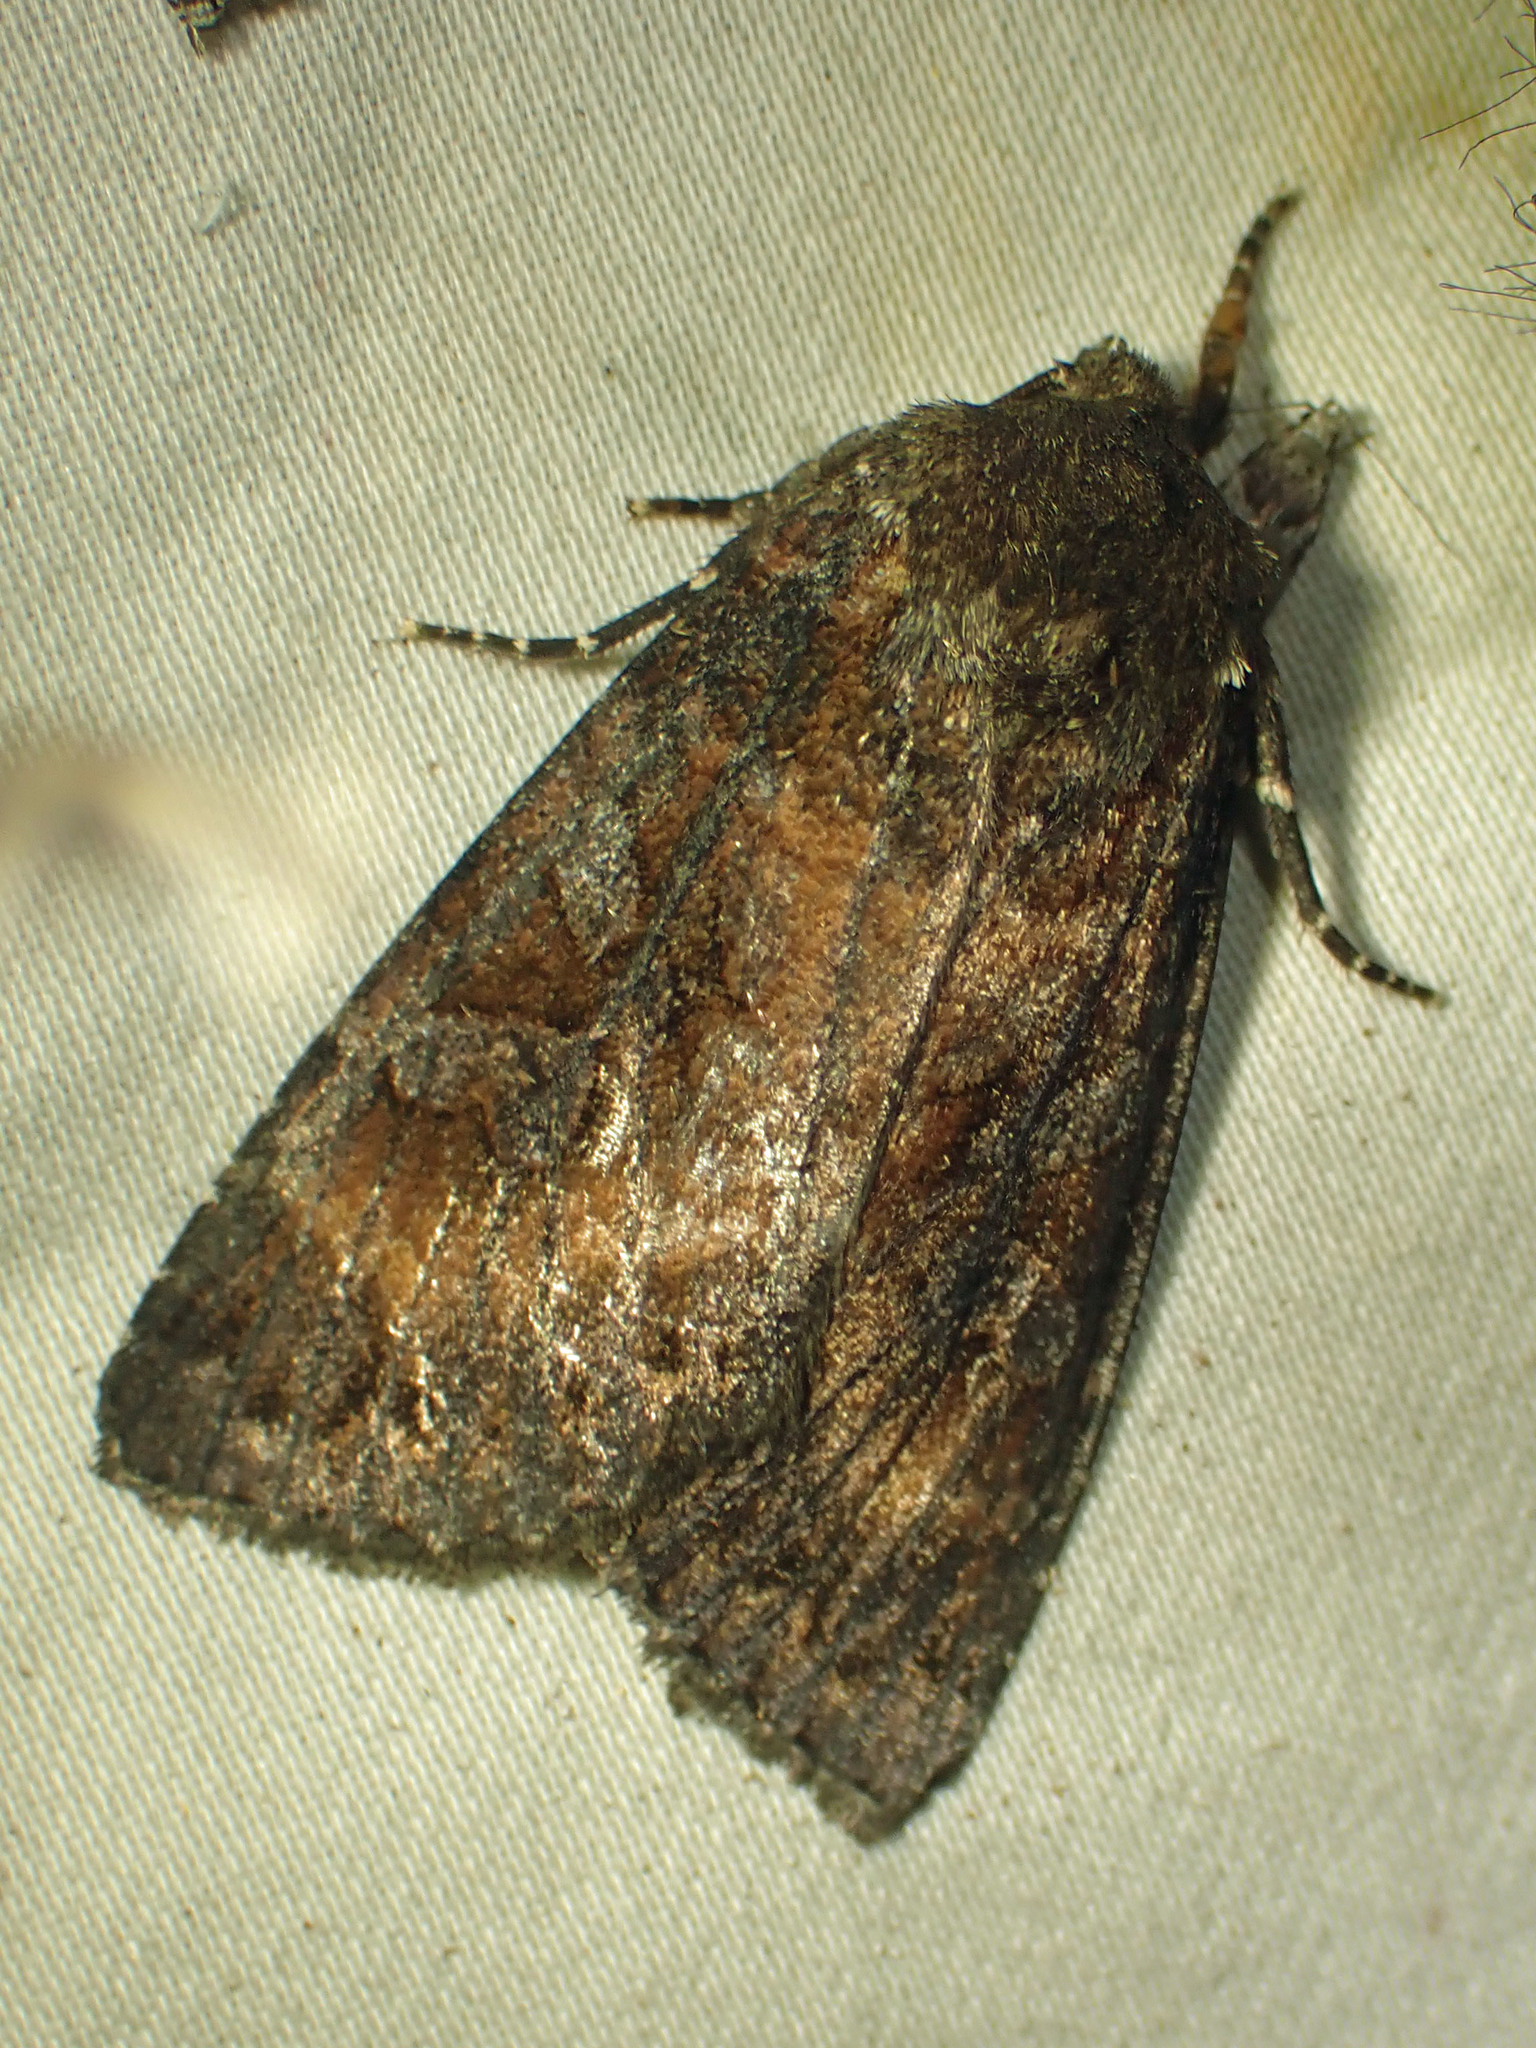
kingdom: Animalia
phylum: Arthropoda
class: Insecta
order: Lepidoptera
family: Noctuidae
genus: Eurois
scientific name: Eurois astricta
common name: Great brown dart
